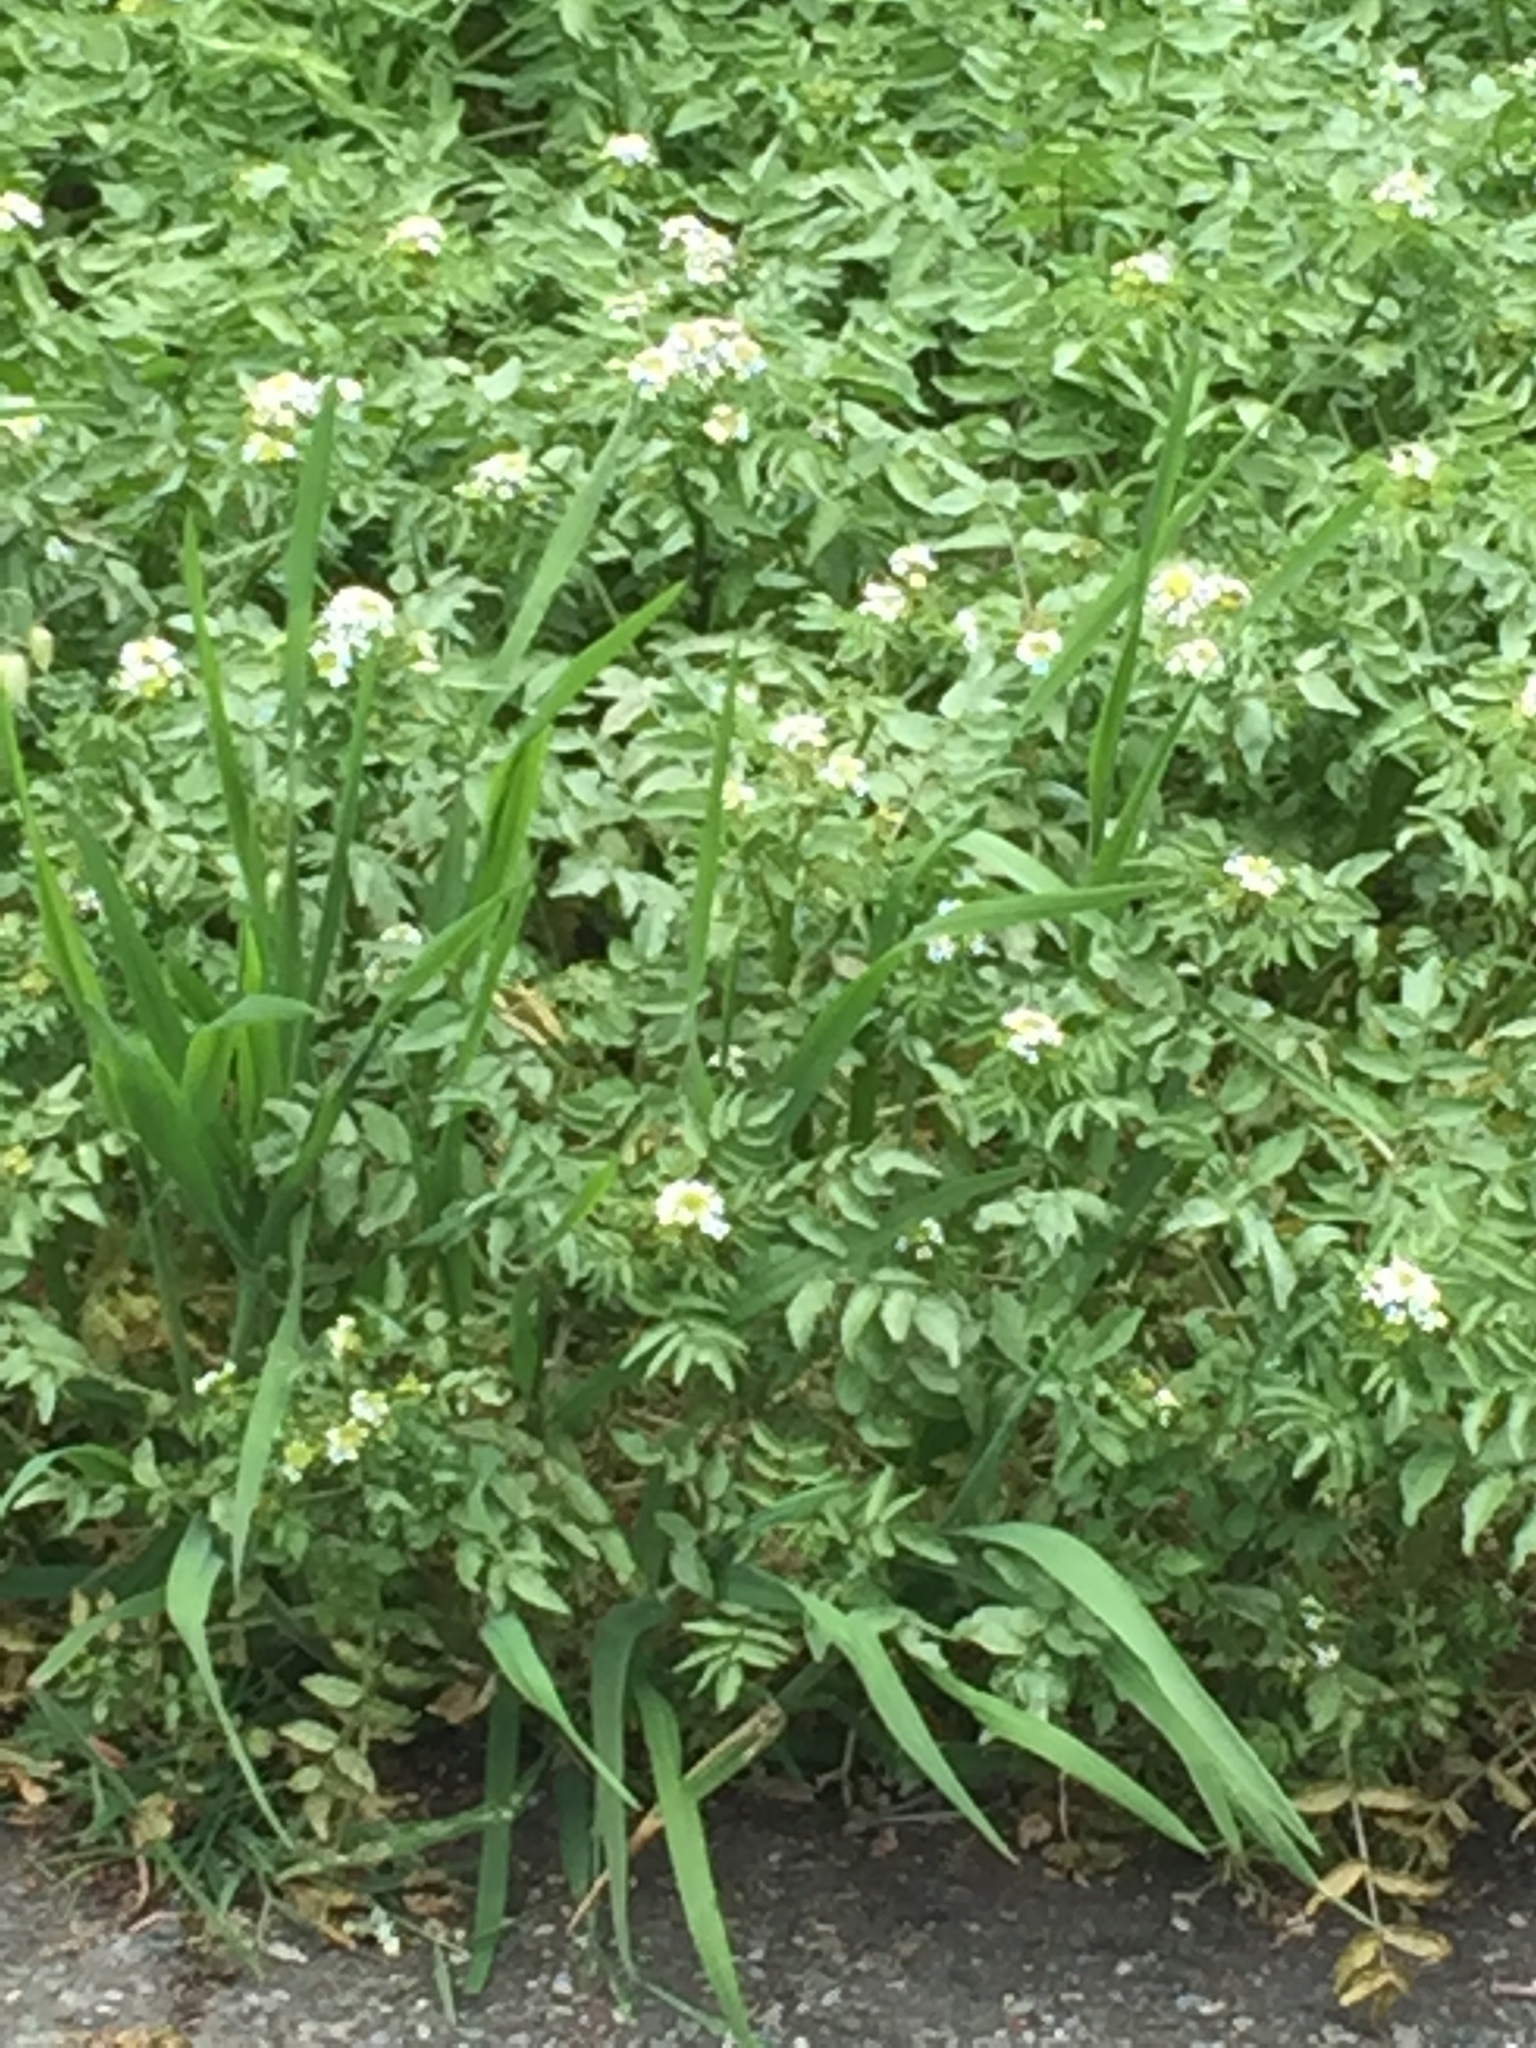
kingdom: Plantae
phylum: Tracheophyta
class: Magnoliopsida
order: Brassicales
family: Brassicaceae
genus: Nasturtium
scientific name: Nasturtium officinale
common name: Watercress
